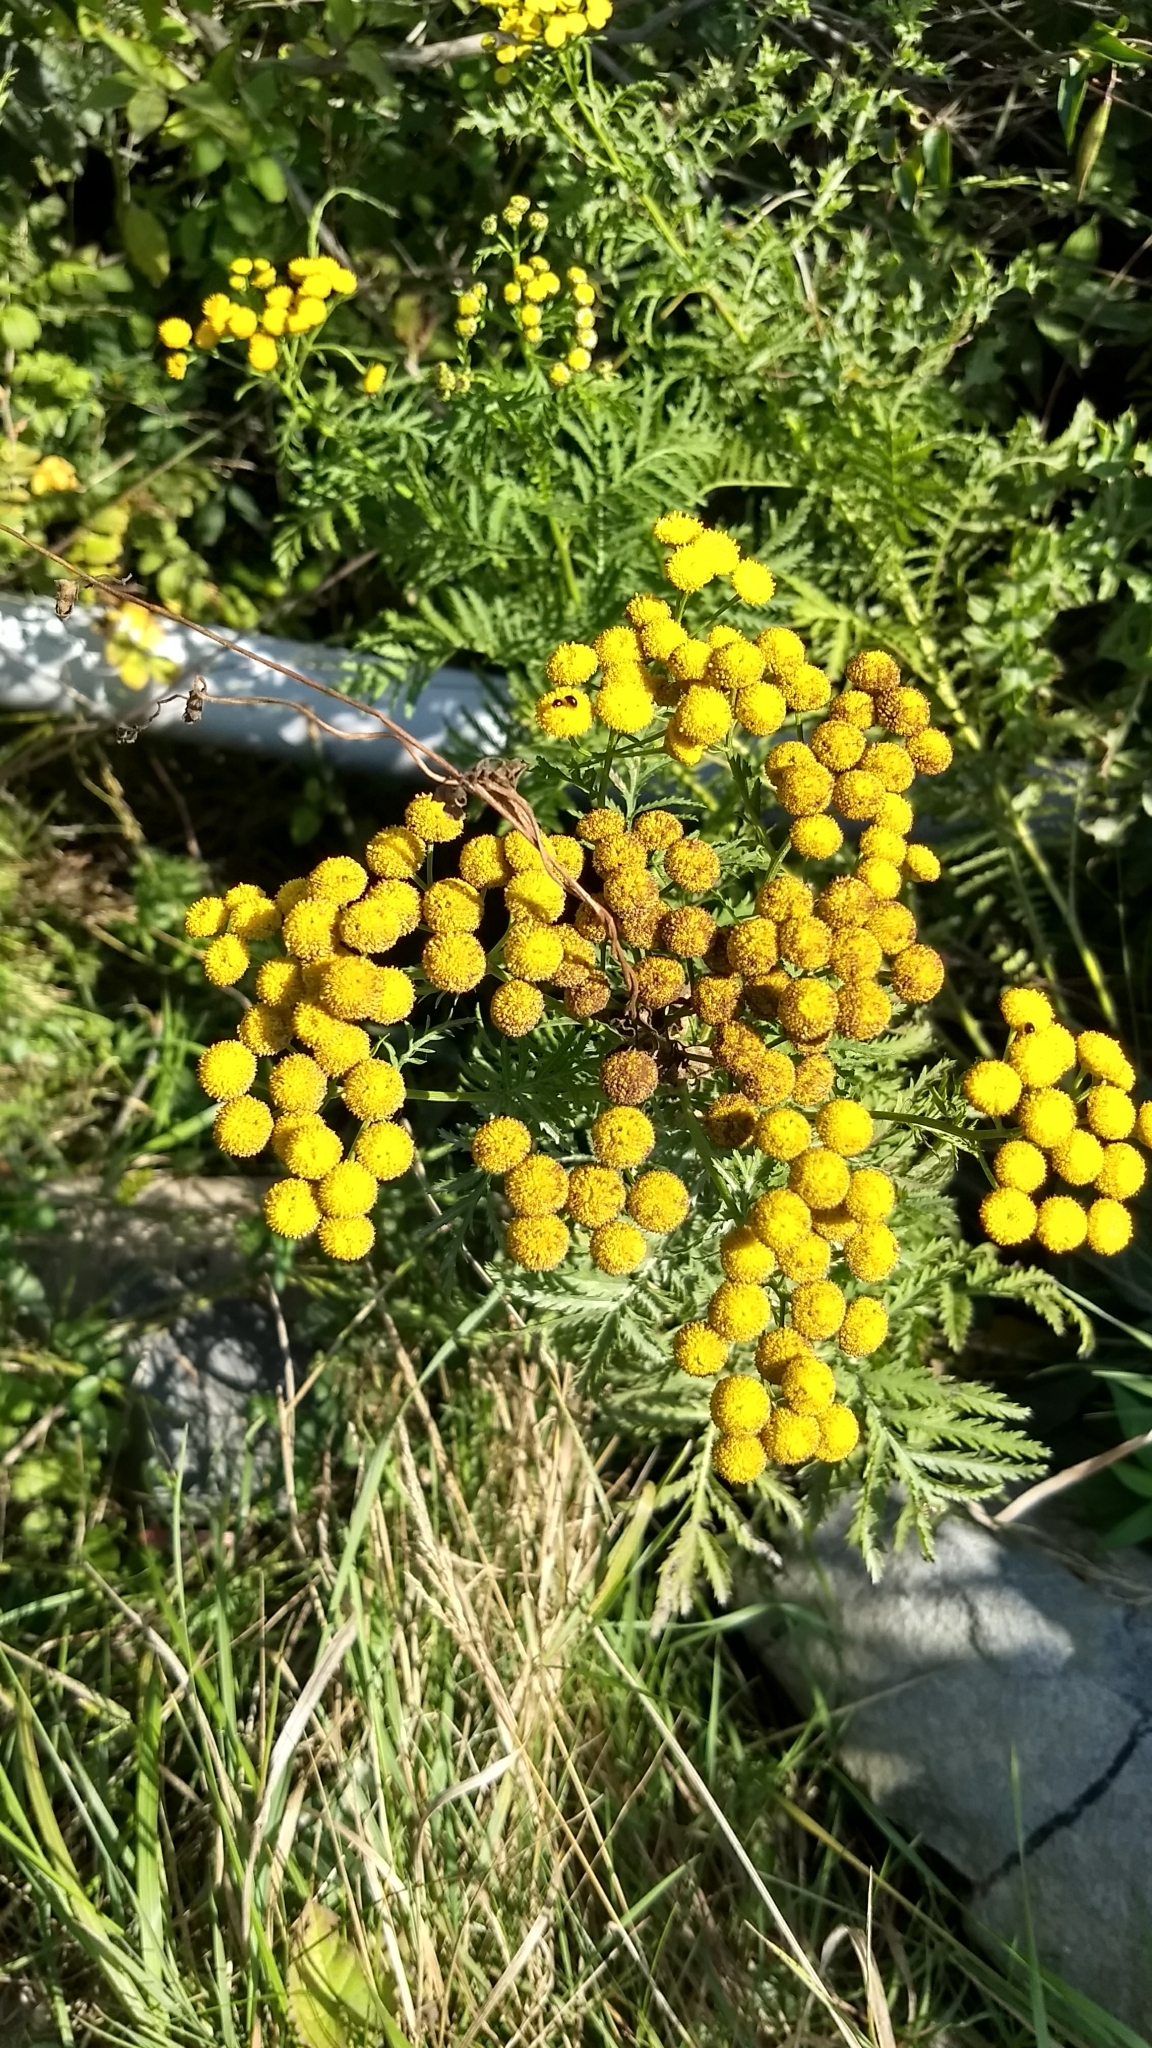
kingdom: Plantae
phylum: Tracheophyta
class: Magnoliopsida
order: Asterales
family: Asteraceae
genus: Tanacetum
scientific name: Tanacetum vulgare
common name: Common tansy
